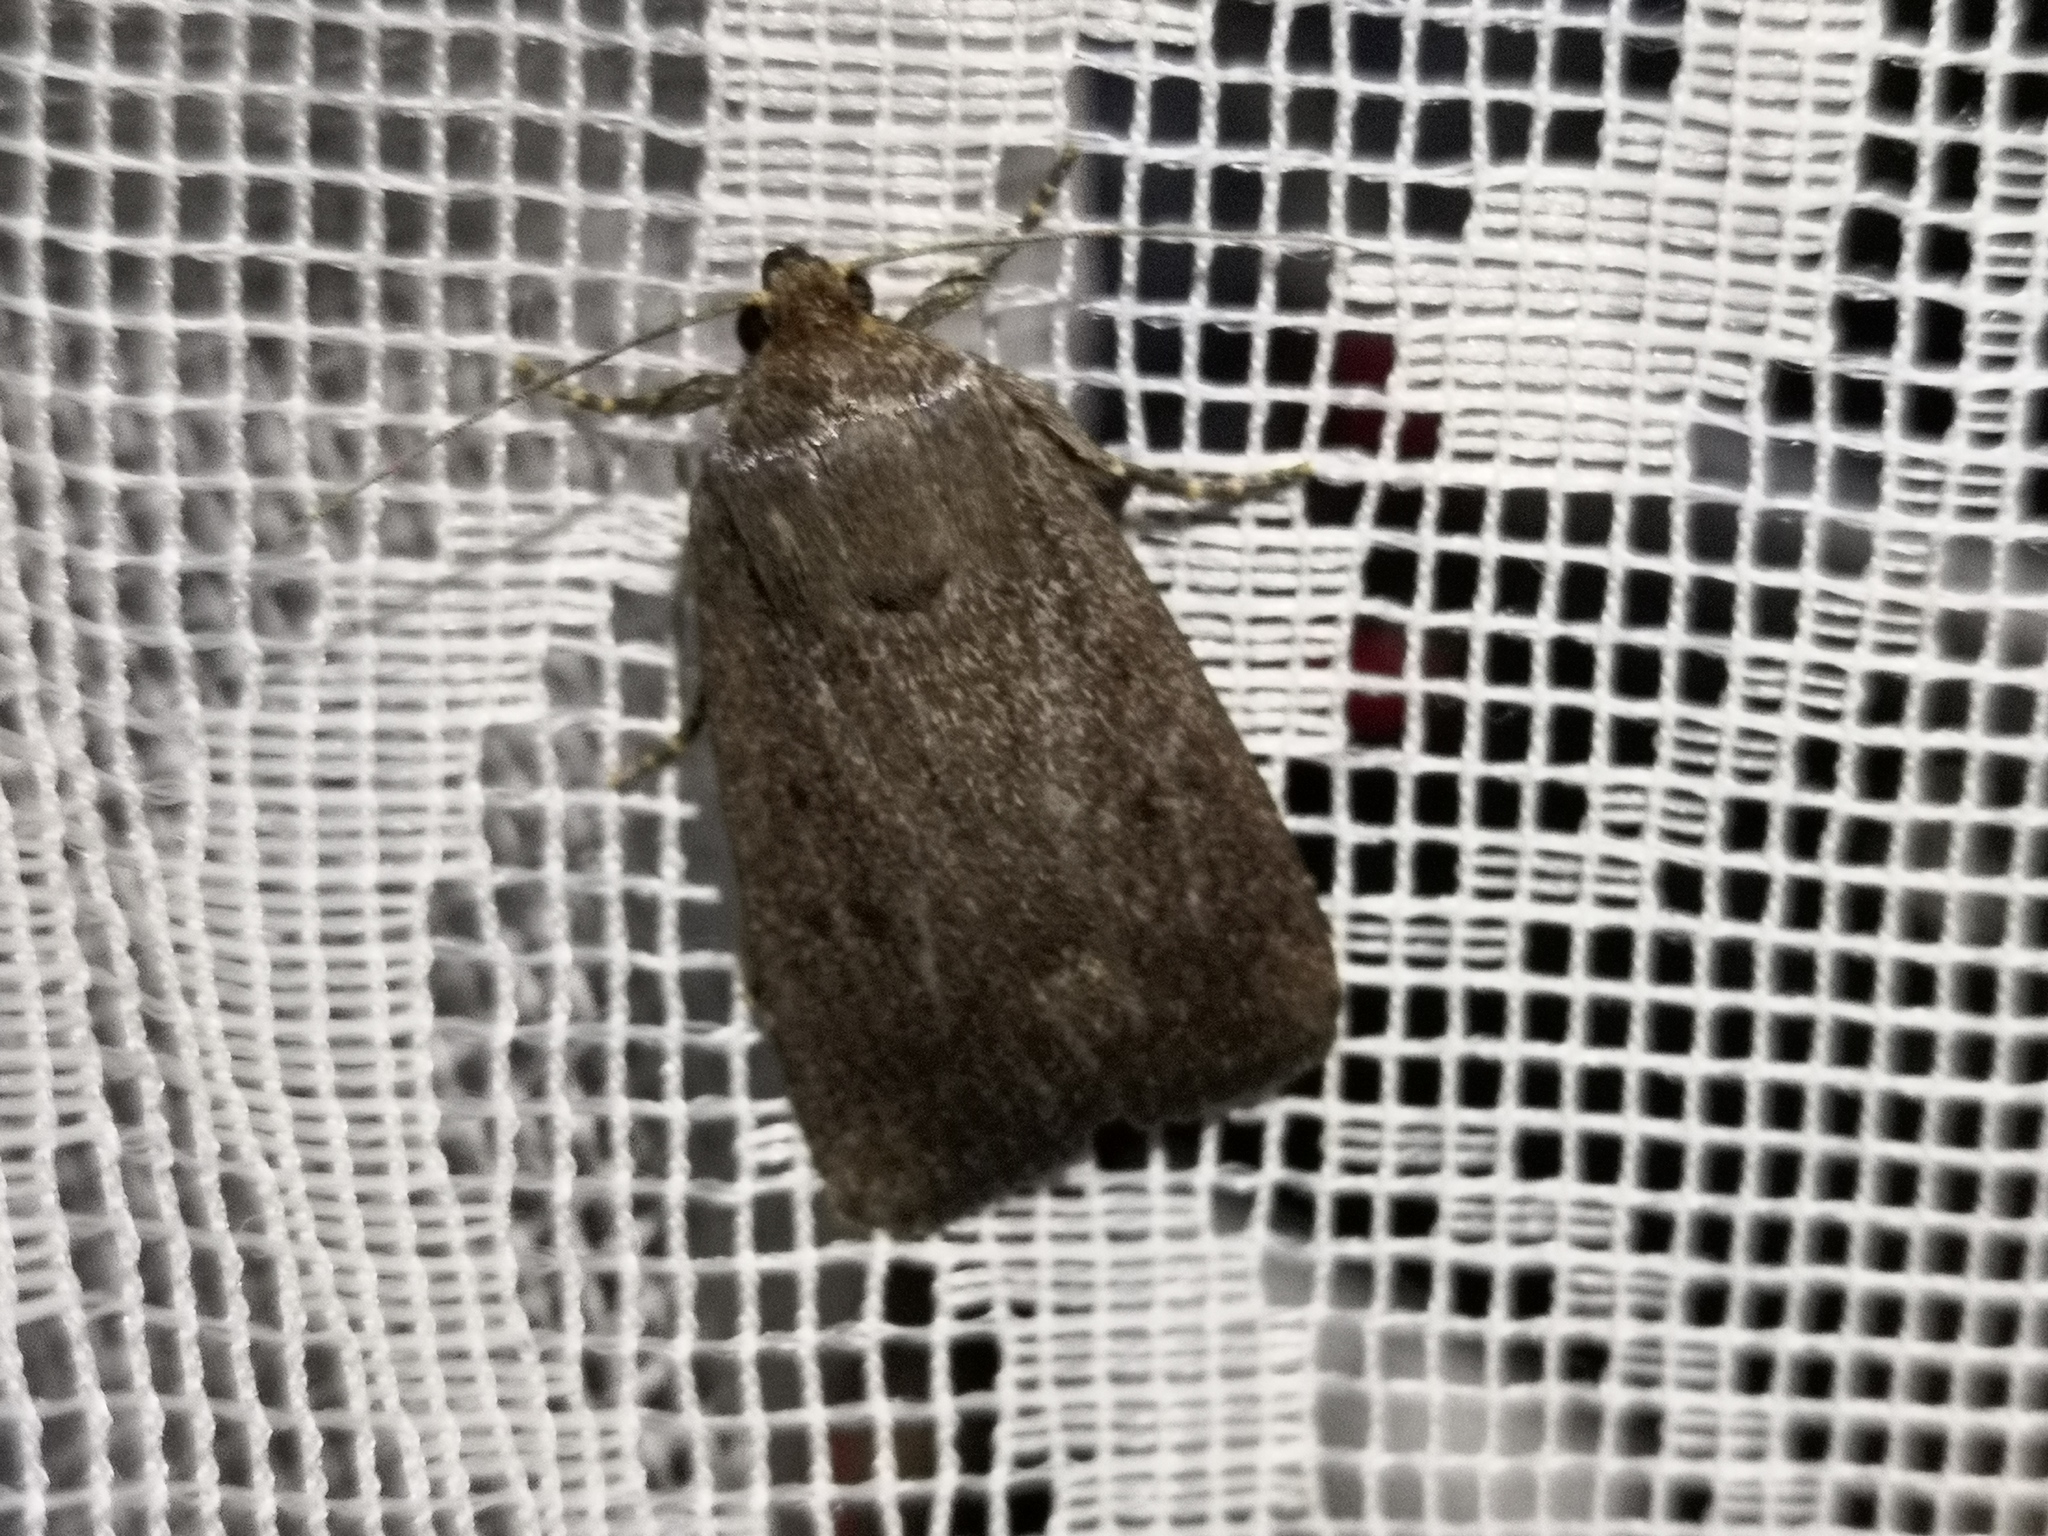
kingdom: Animalia
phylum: Arthropoda
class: Insecta
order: Lepidoptera
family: Noctuidae
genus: Amphipyra
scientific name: Amphipyra tragopoginis
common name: Mouse moth
